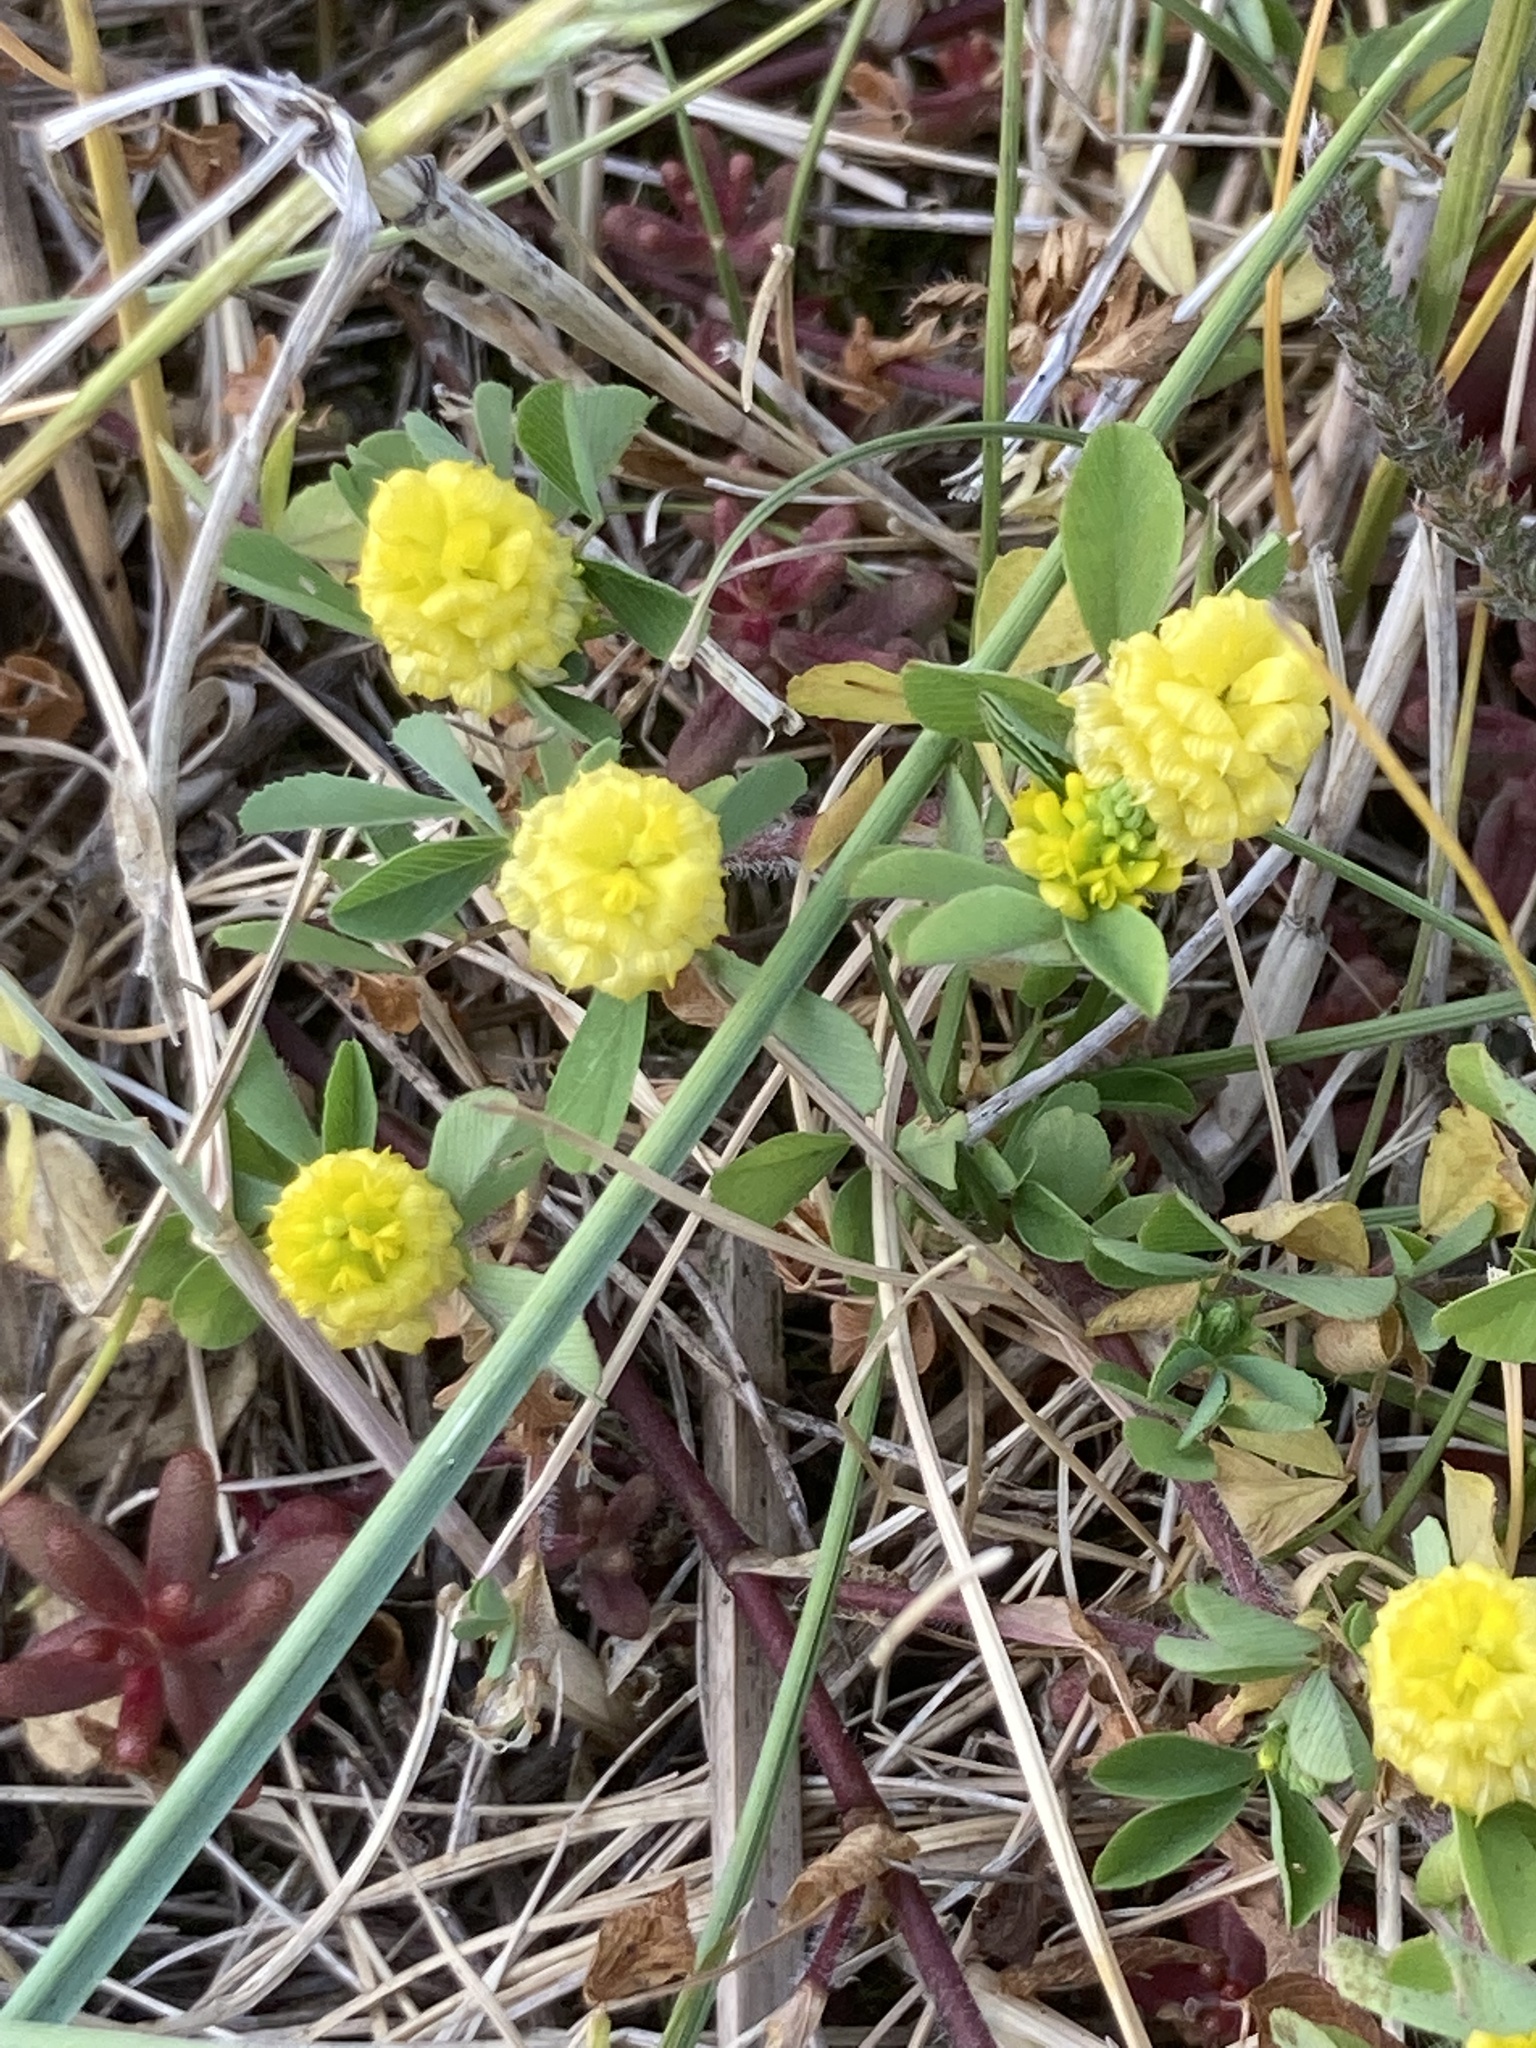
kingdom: Plantae
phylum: Tracheophyta
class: Magnoliopsida
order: Fabales
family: Fabaceae
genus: Trifolium
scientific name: Trifolium campestre
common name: Field clover
